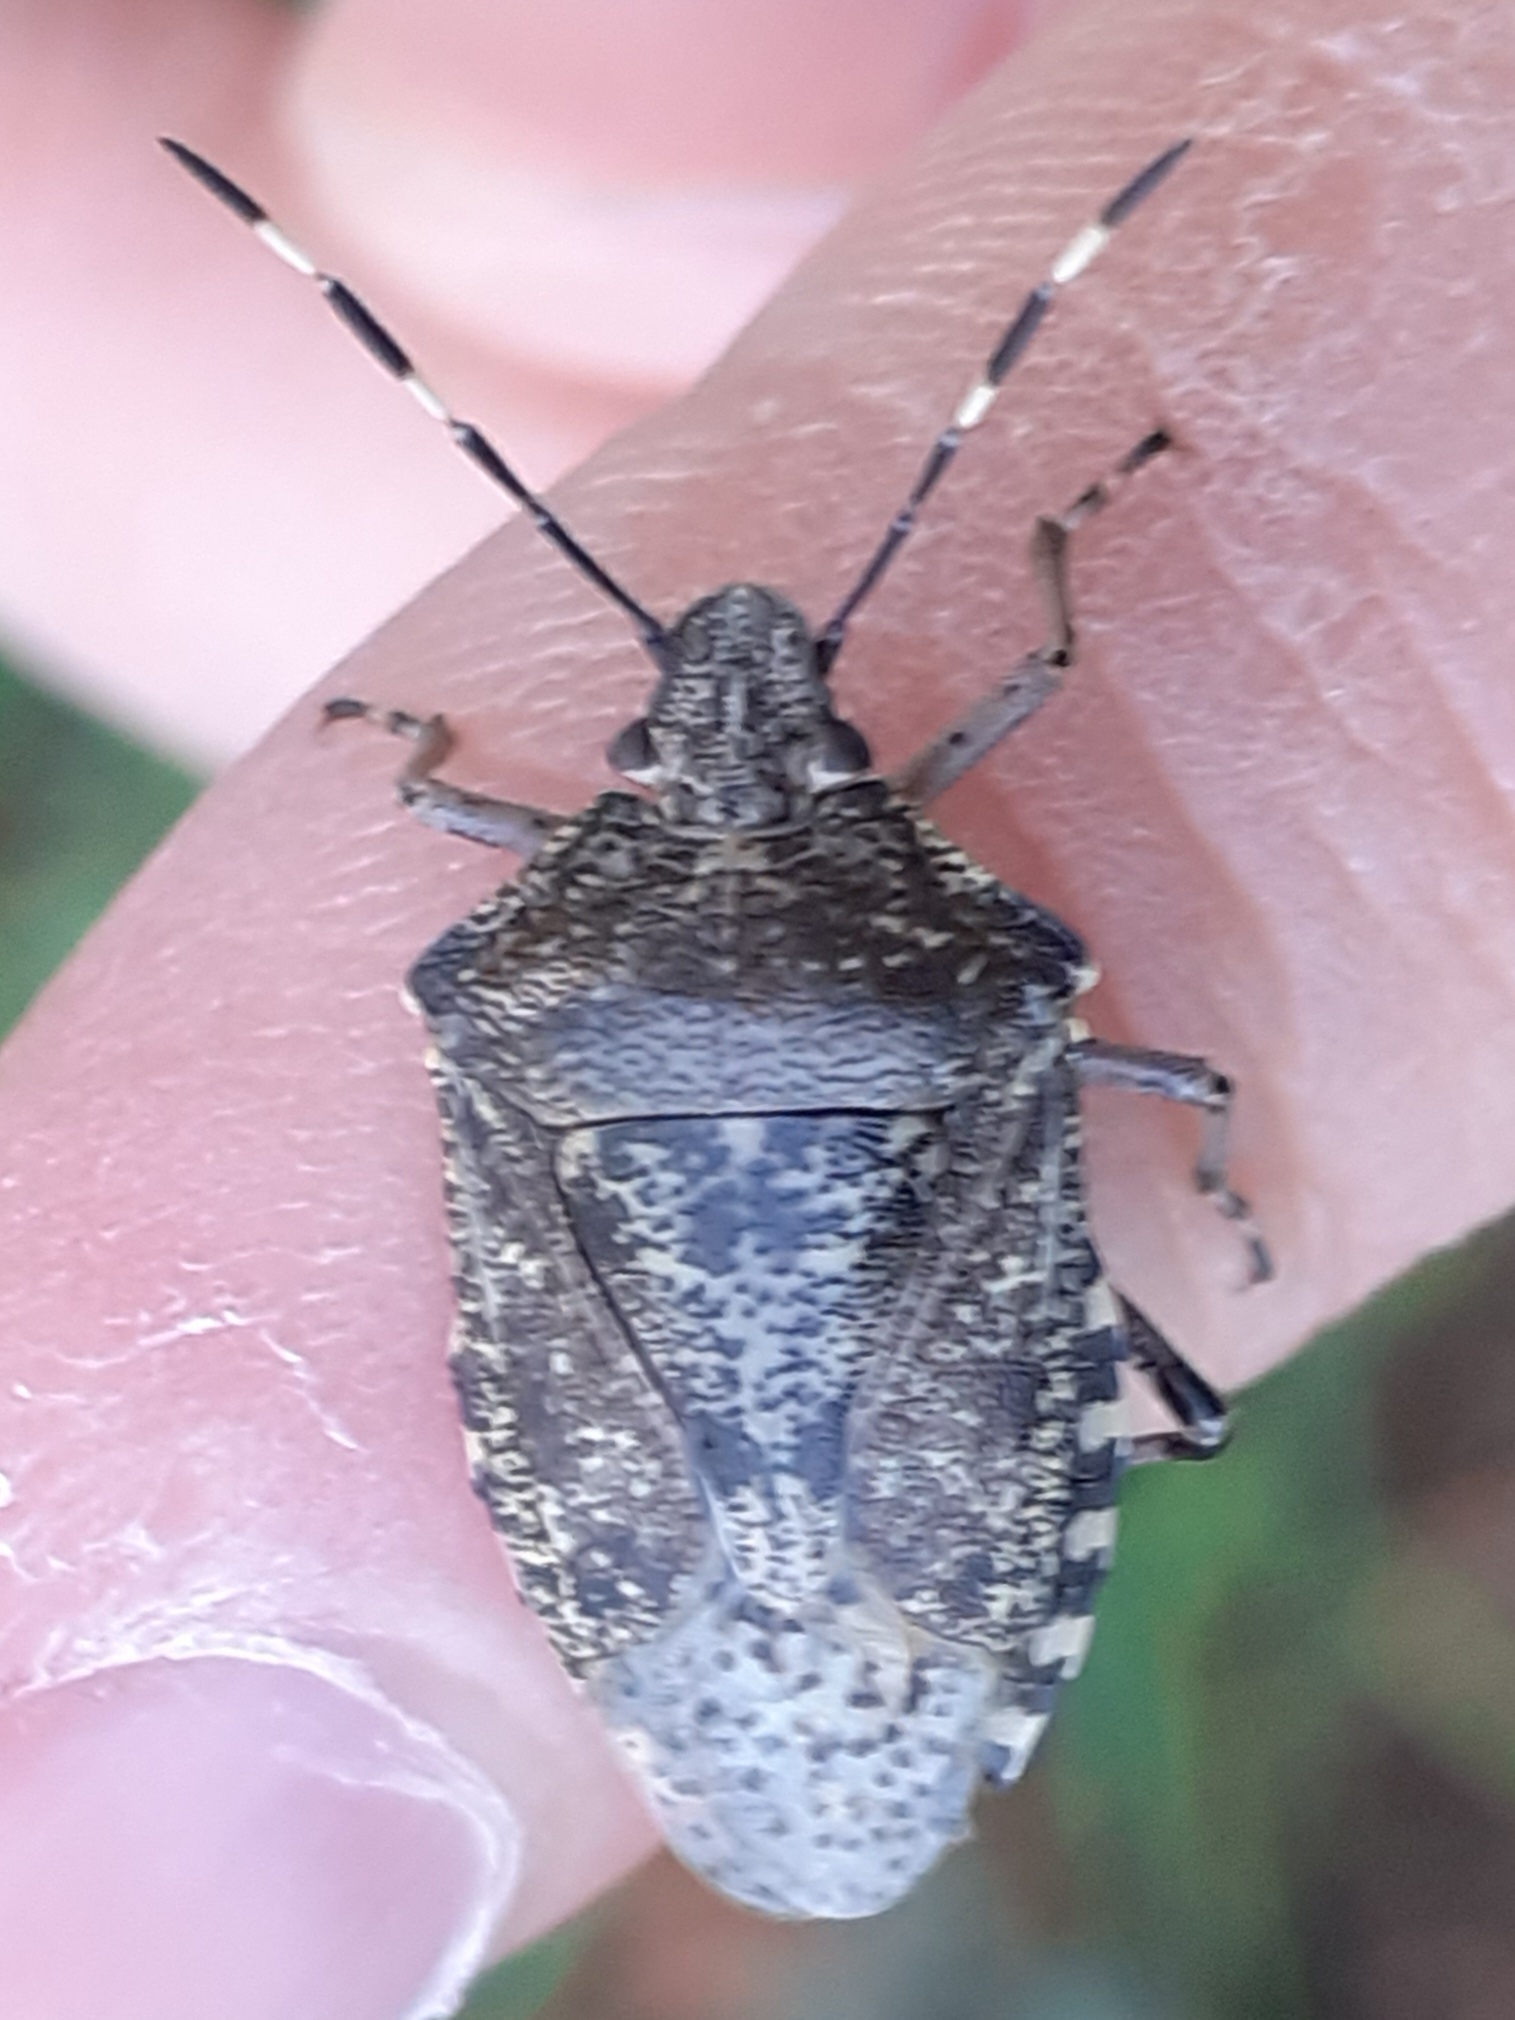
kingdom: Animalia
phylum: Arthropoda
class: Insecta
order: Hemiptera
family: Pentatomidae
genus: Rhaphigaster
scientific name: Rhaphigaster nebulosa
